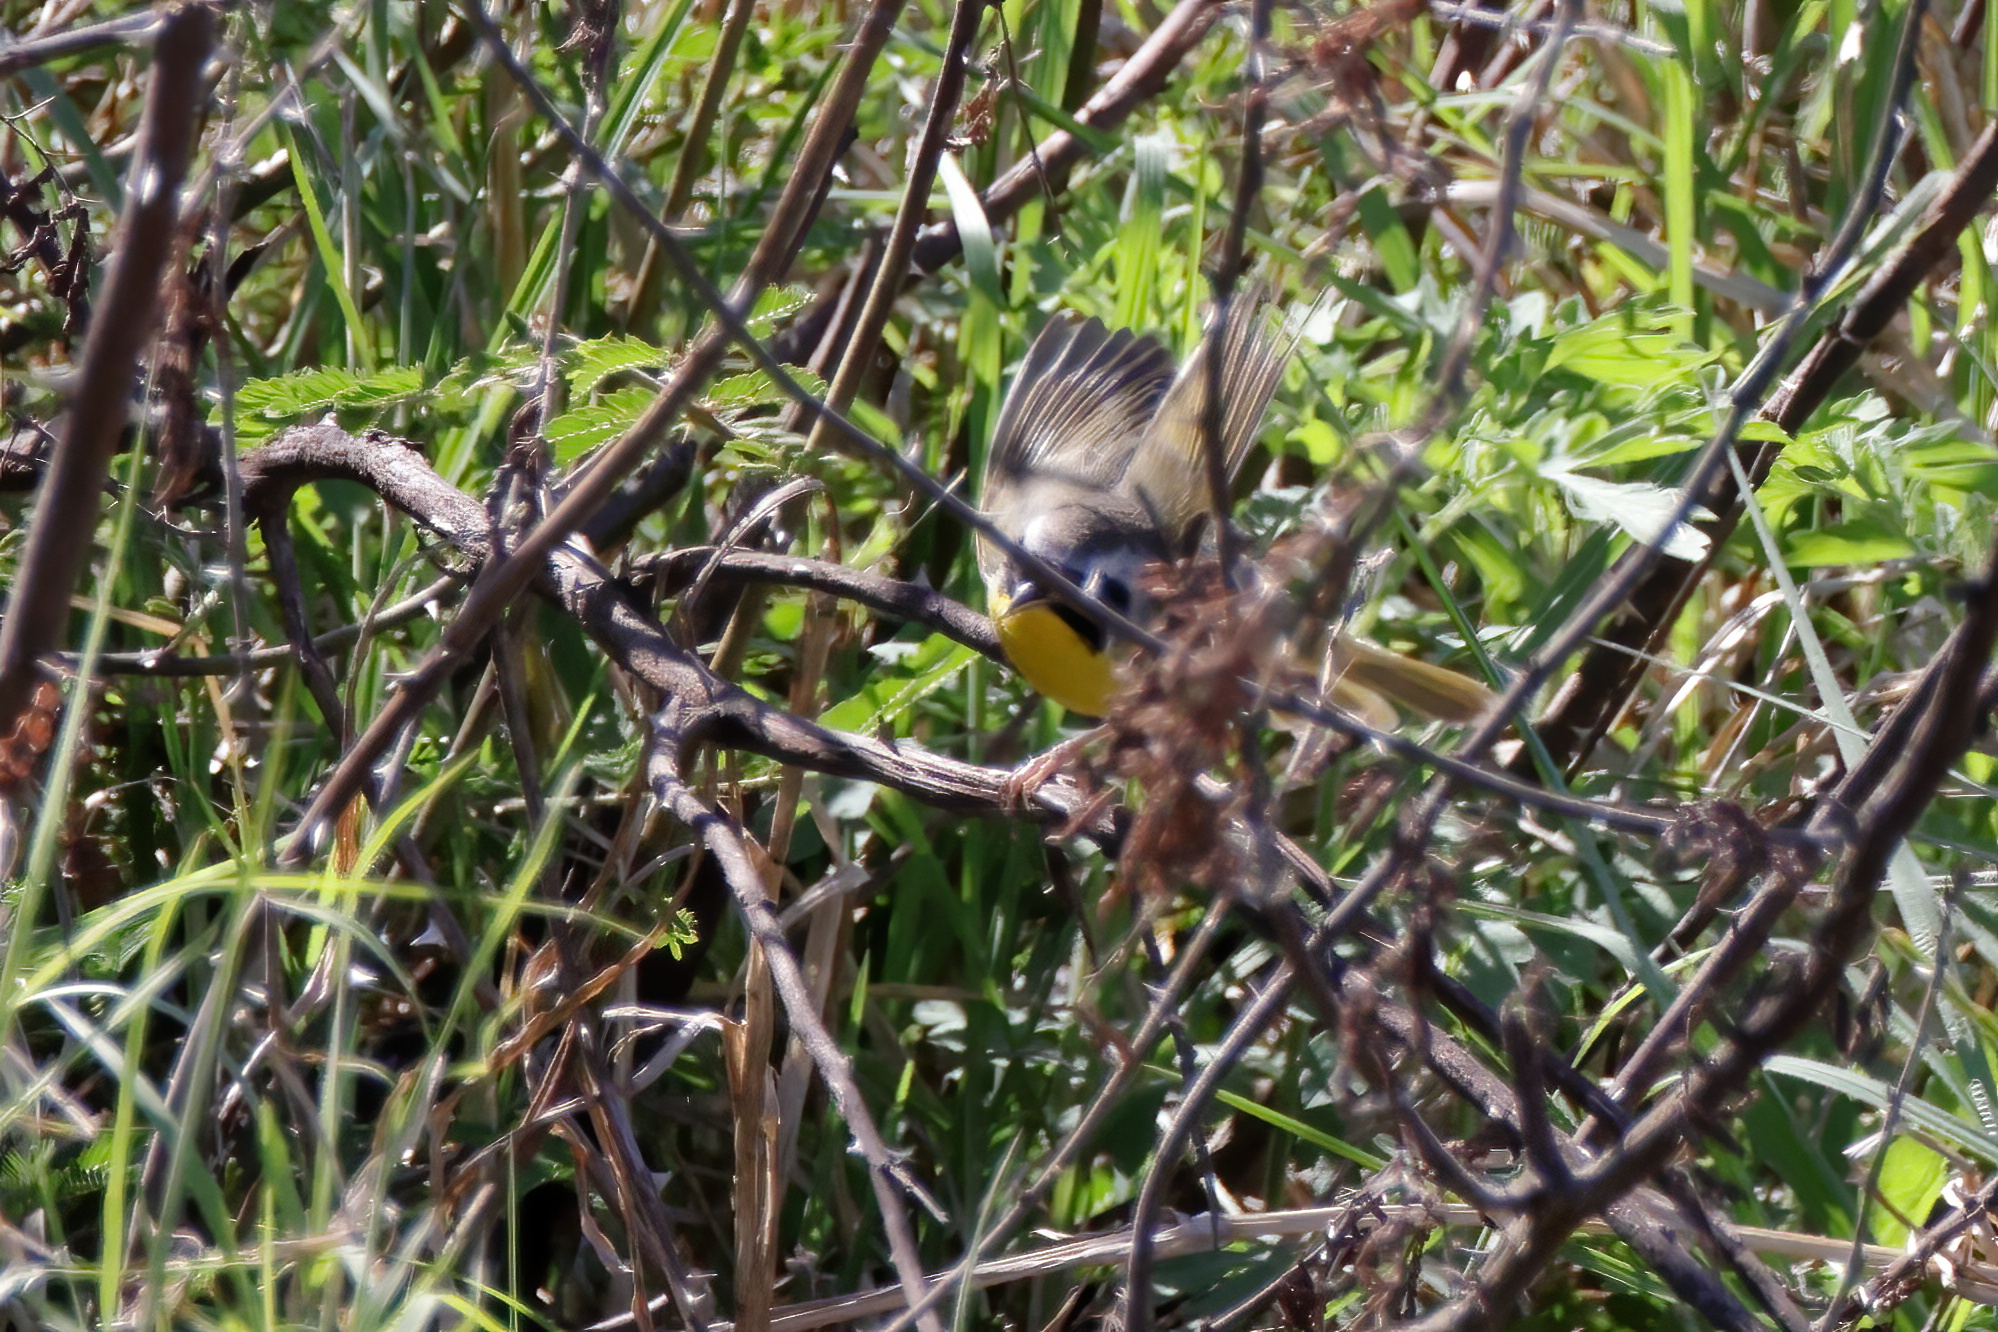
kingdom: Animalia
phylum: Chordata
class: Aves
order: Passeriformes
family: Parulidae
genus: Geothlypis
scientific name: Geothlypis trichas
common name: Common yellowthroat
